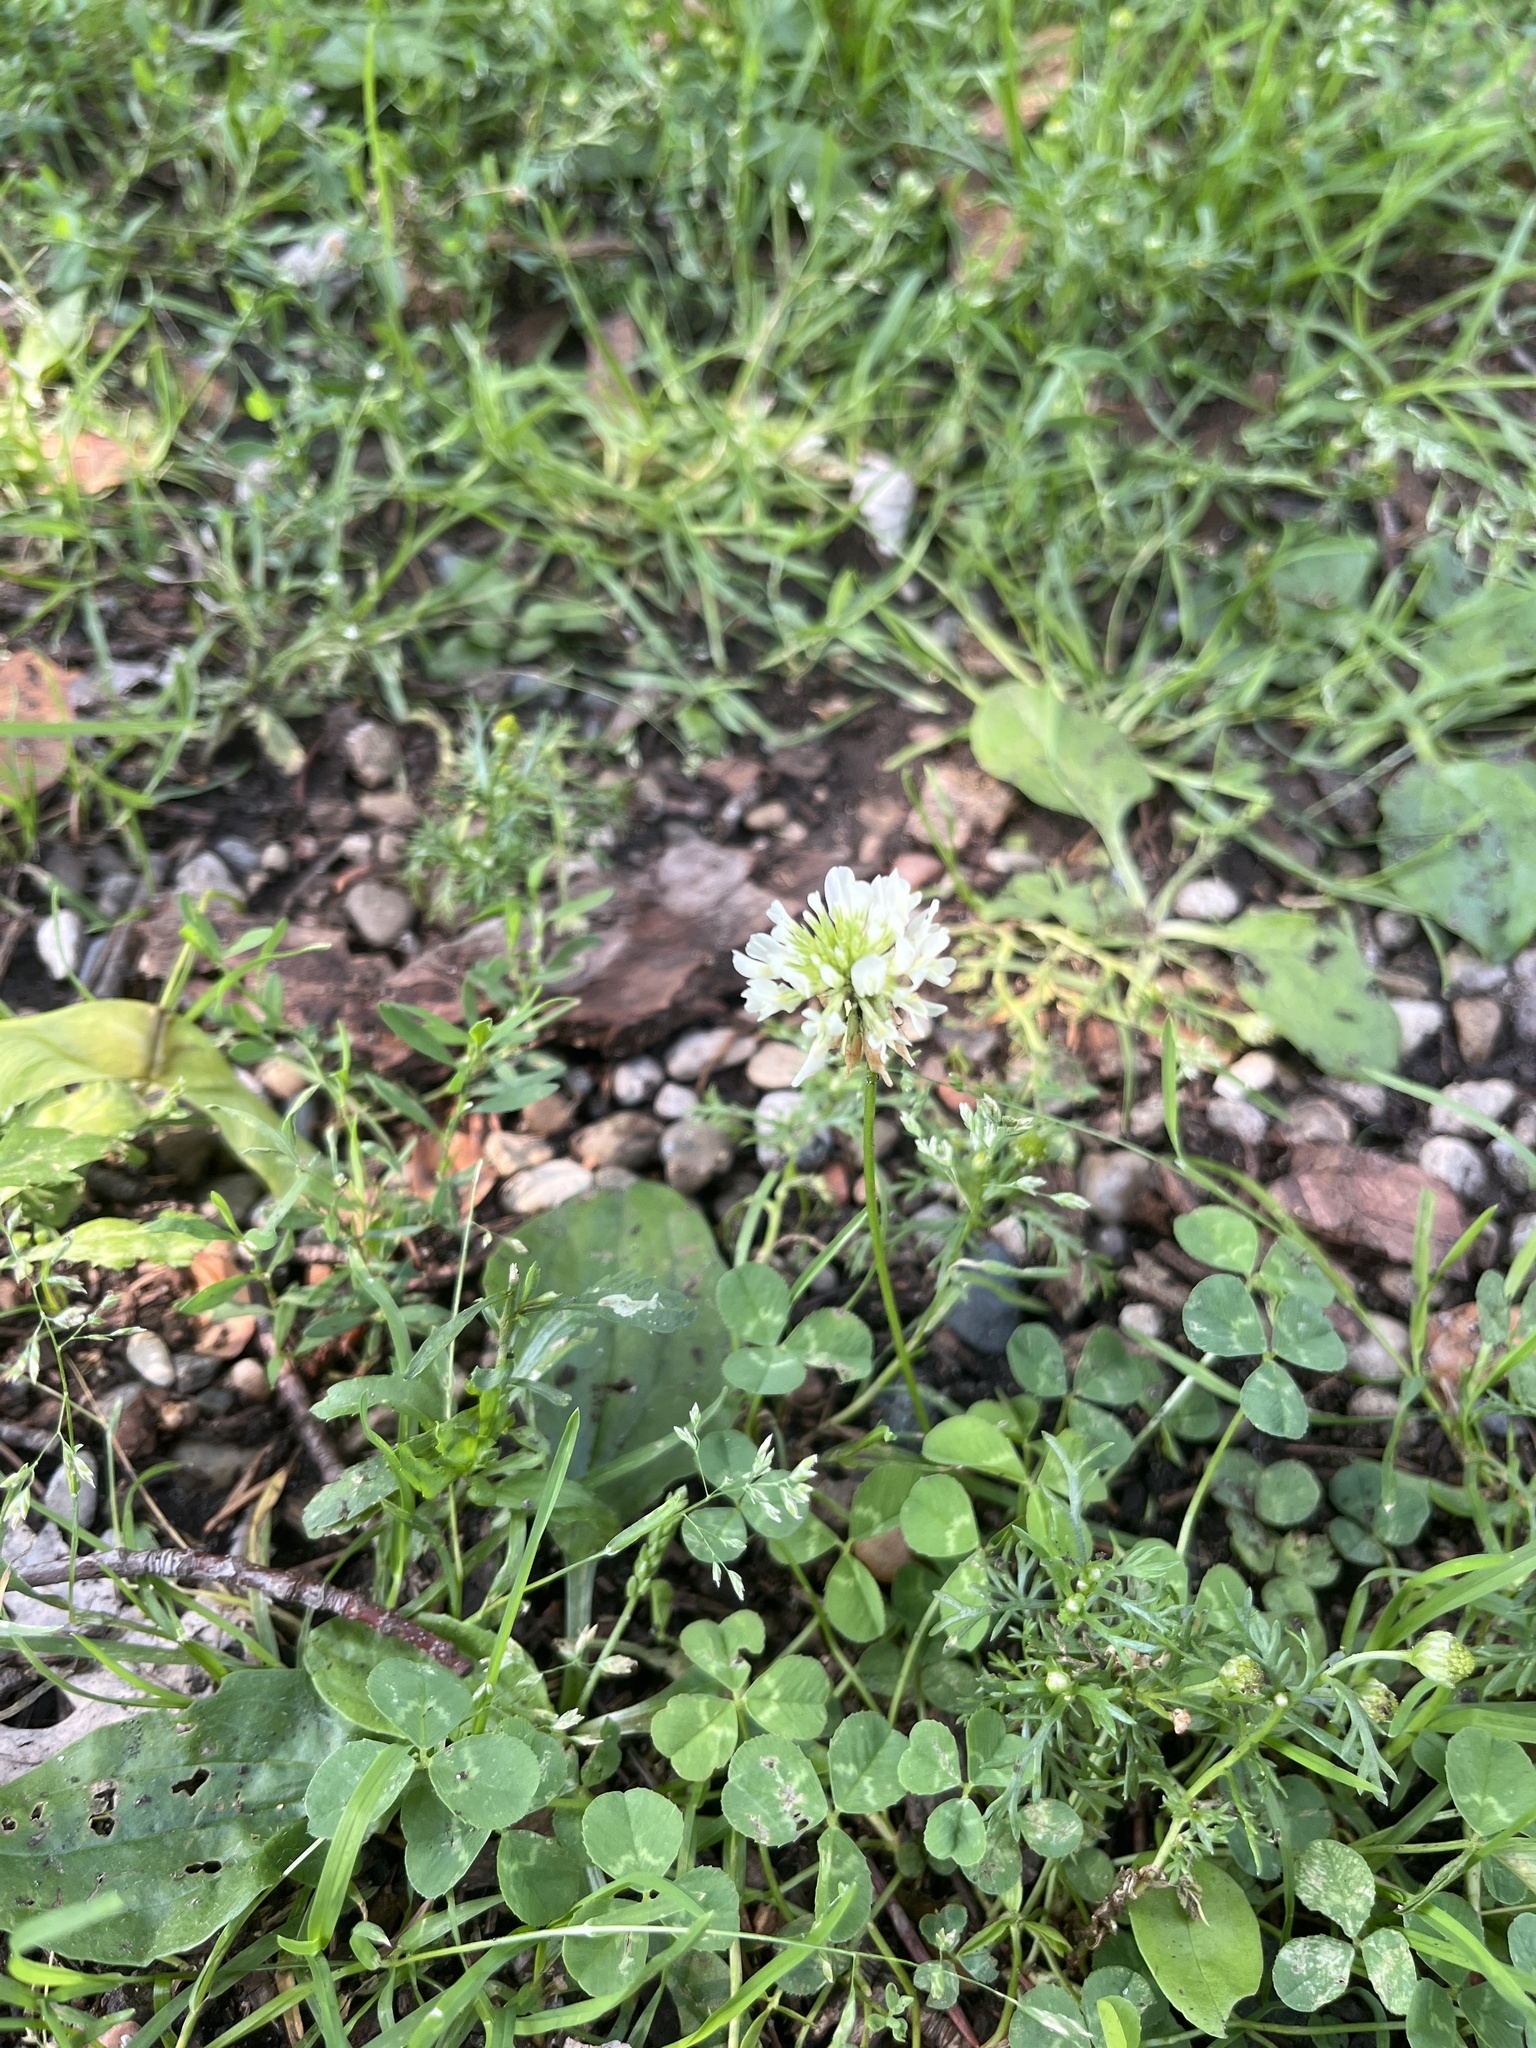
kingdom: Plantae
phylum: Tracheophyta
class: Magnoliopsida
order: Fabales
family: Fabaceae
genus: Trifolium
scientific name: Trifolium repens
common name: White clover
